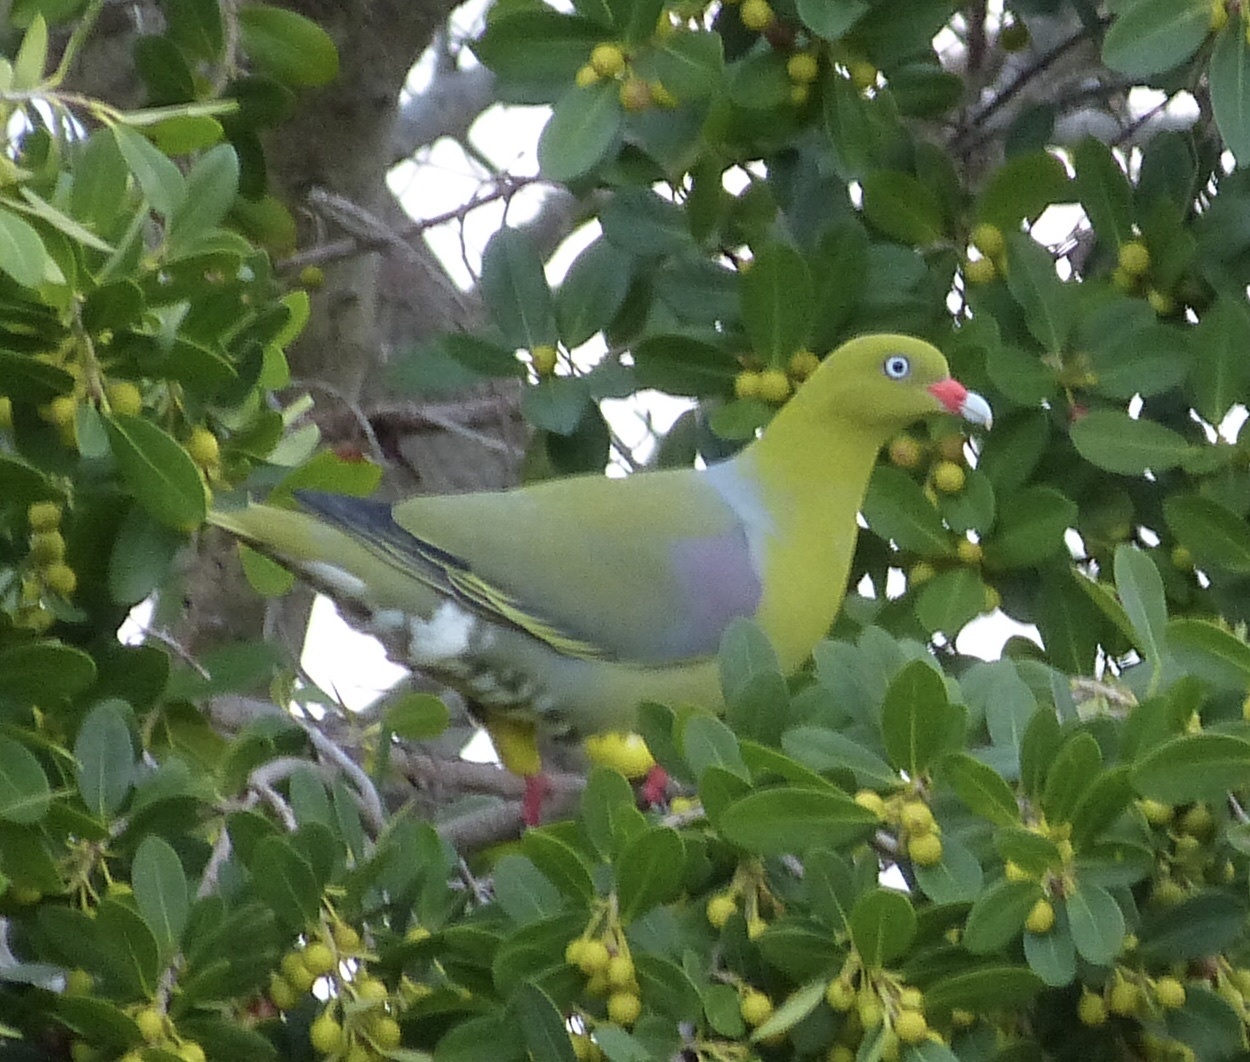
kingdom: Animalia
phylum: Chordata
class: Aves
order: Columbiformes
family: Columbidae
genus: Treron
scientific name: Treron calvus
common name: African green pigeon
